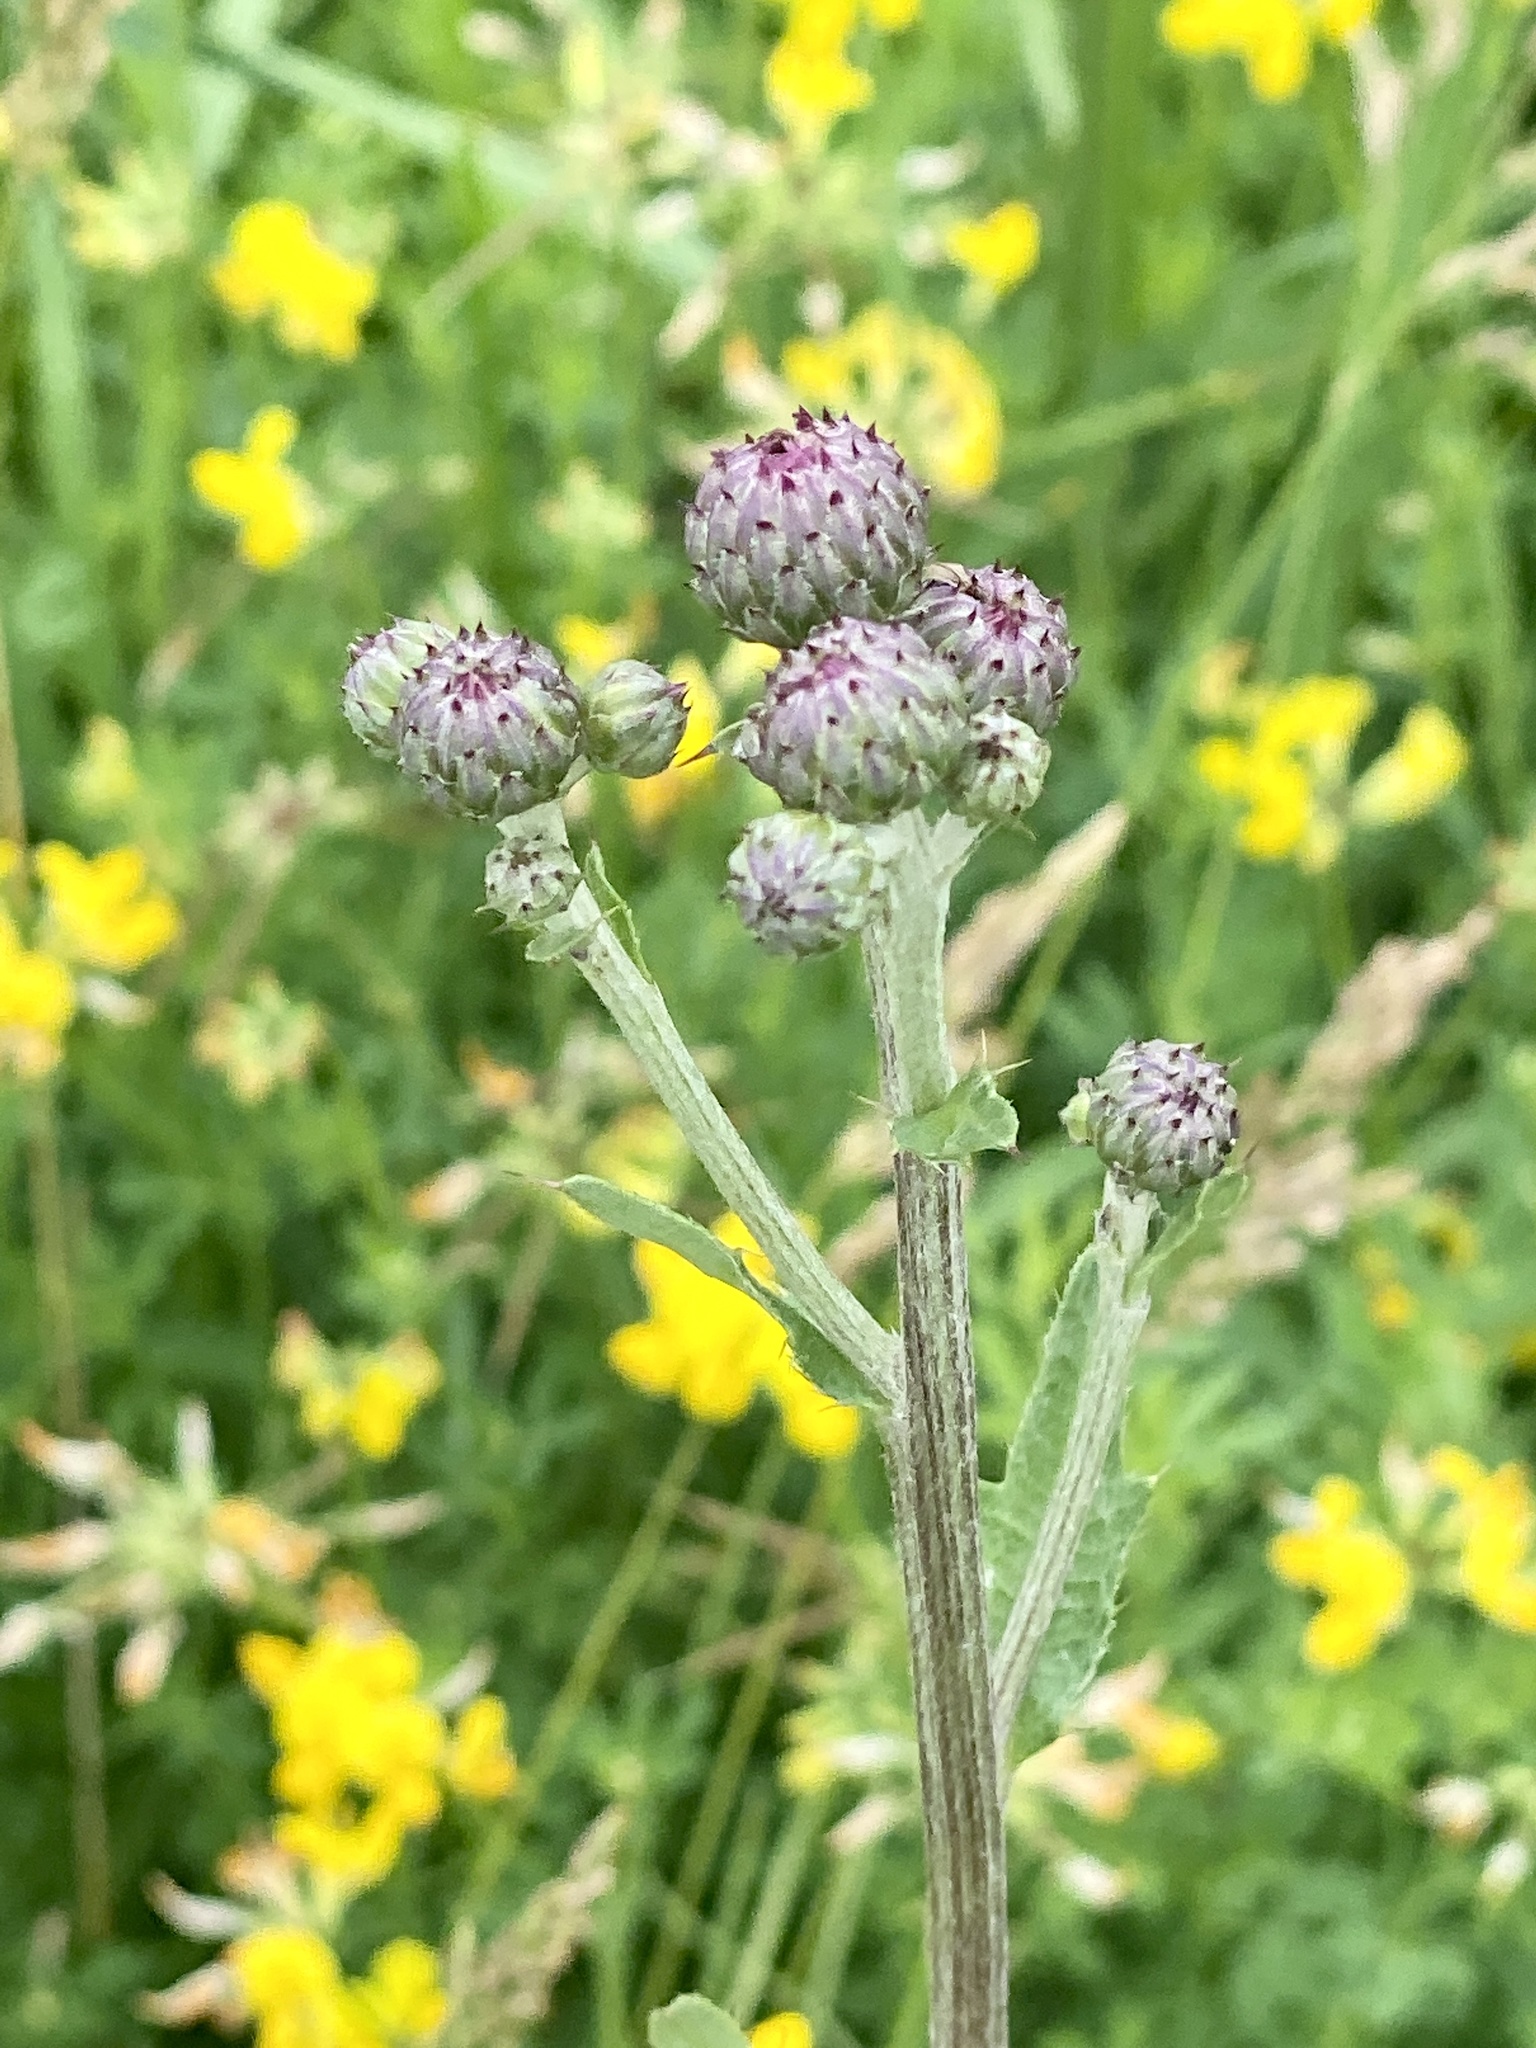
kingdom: Plantae
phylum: Tracheophyta
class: Magnoliopsida
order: Asterales
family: Asteraceae
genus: Cirsium
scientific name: Cirsium arvense
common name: Creeping thistle
